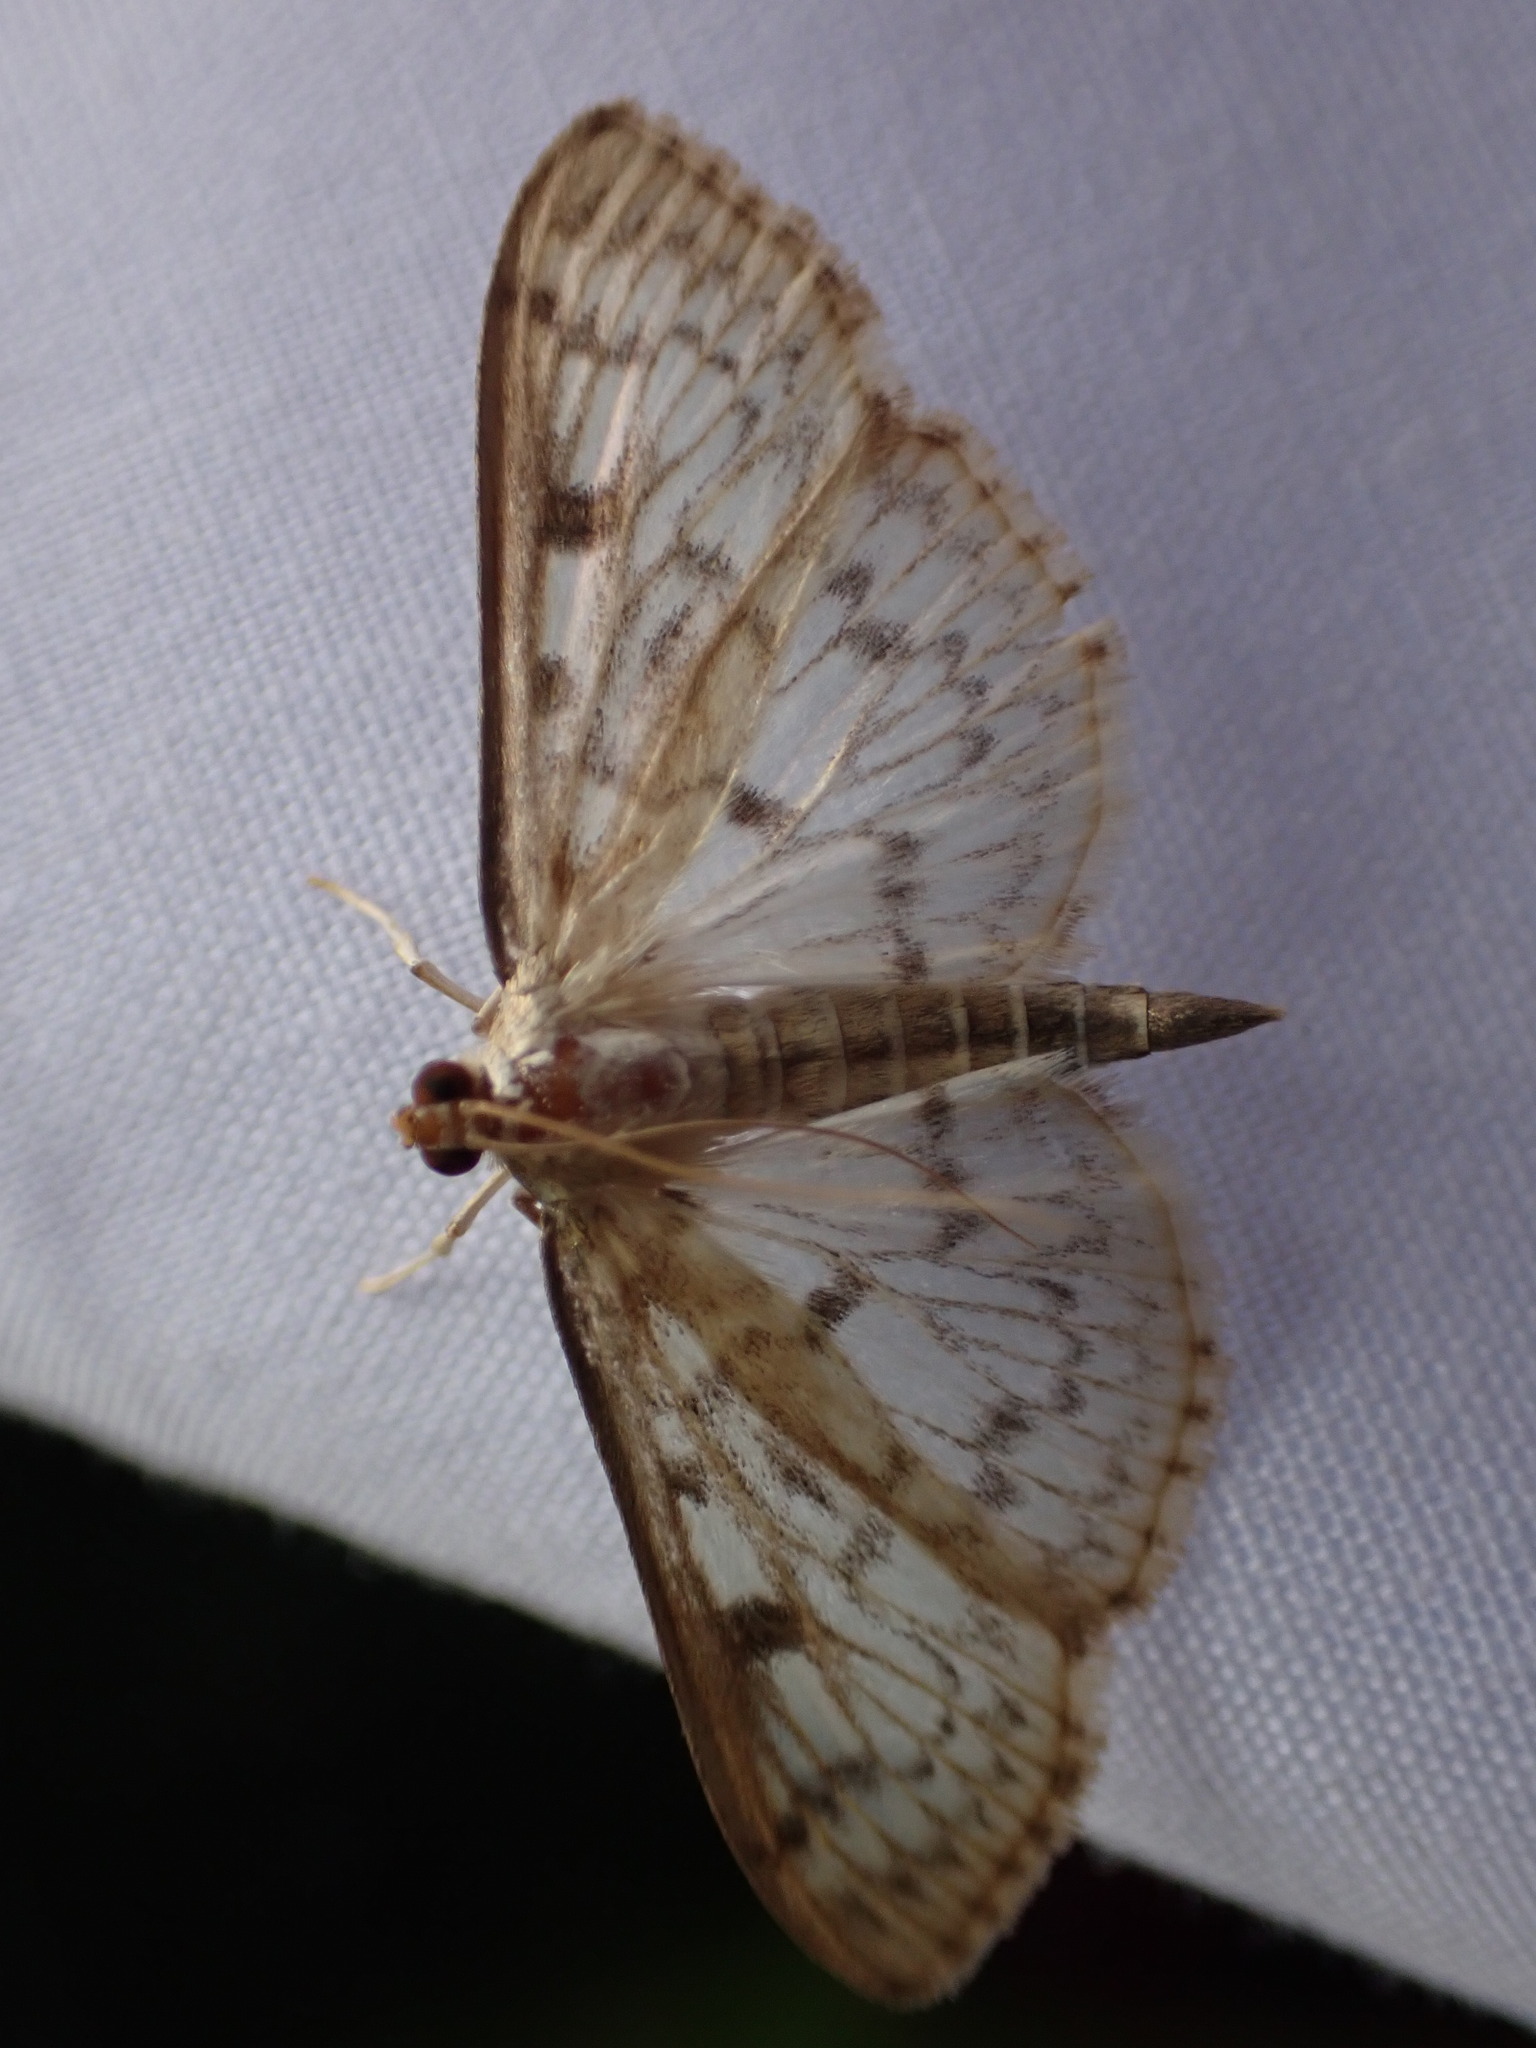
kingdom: Animalia
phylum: Arthropoda
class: Insecta
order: Lepidoptera
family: Crambidae
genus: Herpetogramma
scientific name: Herpetogramma aquilonalis
